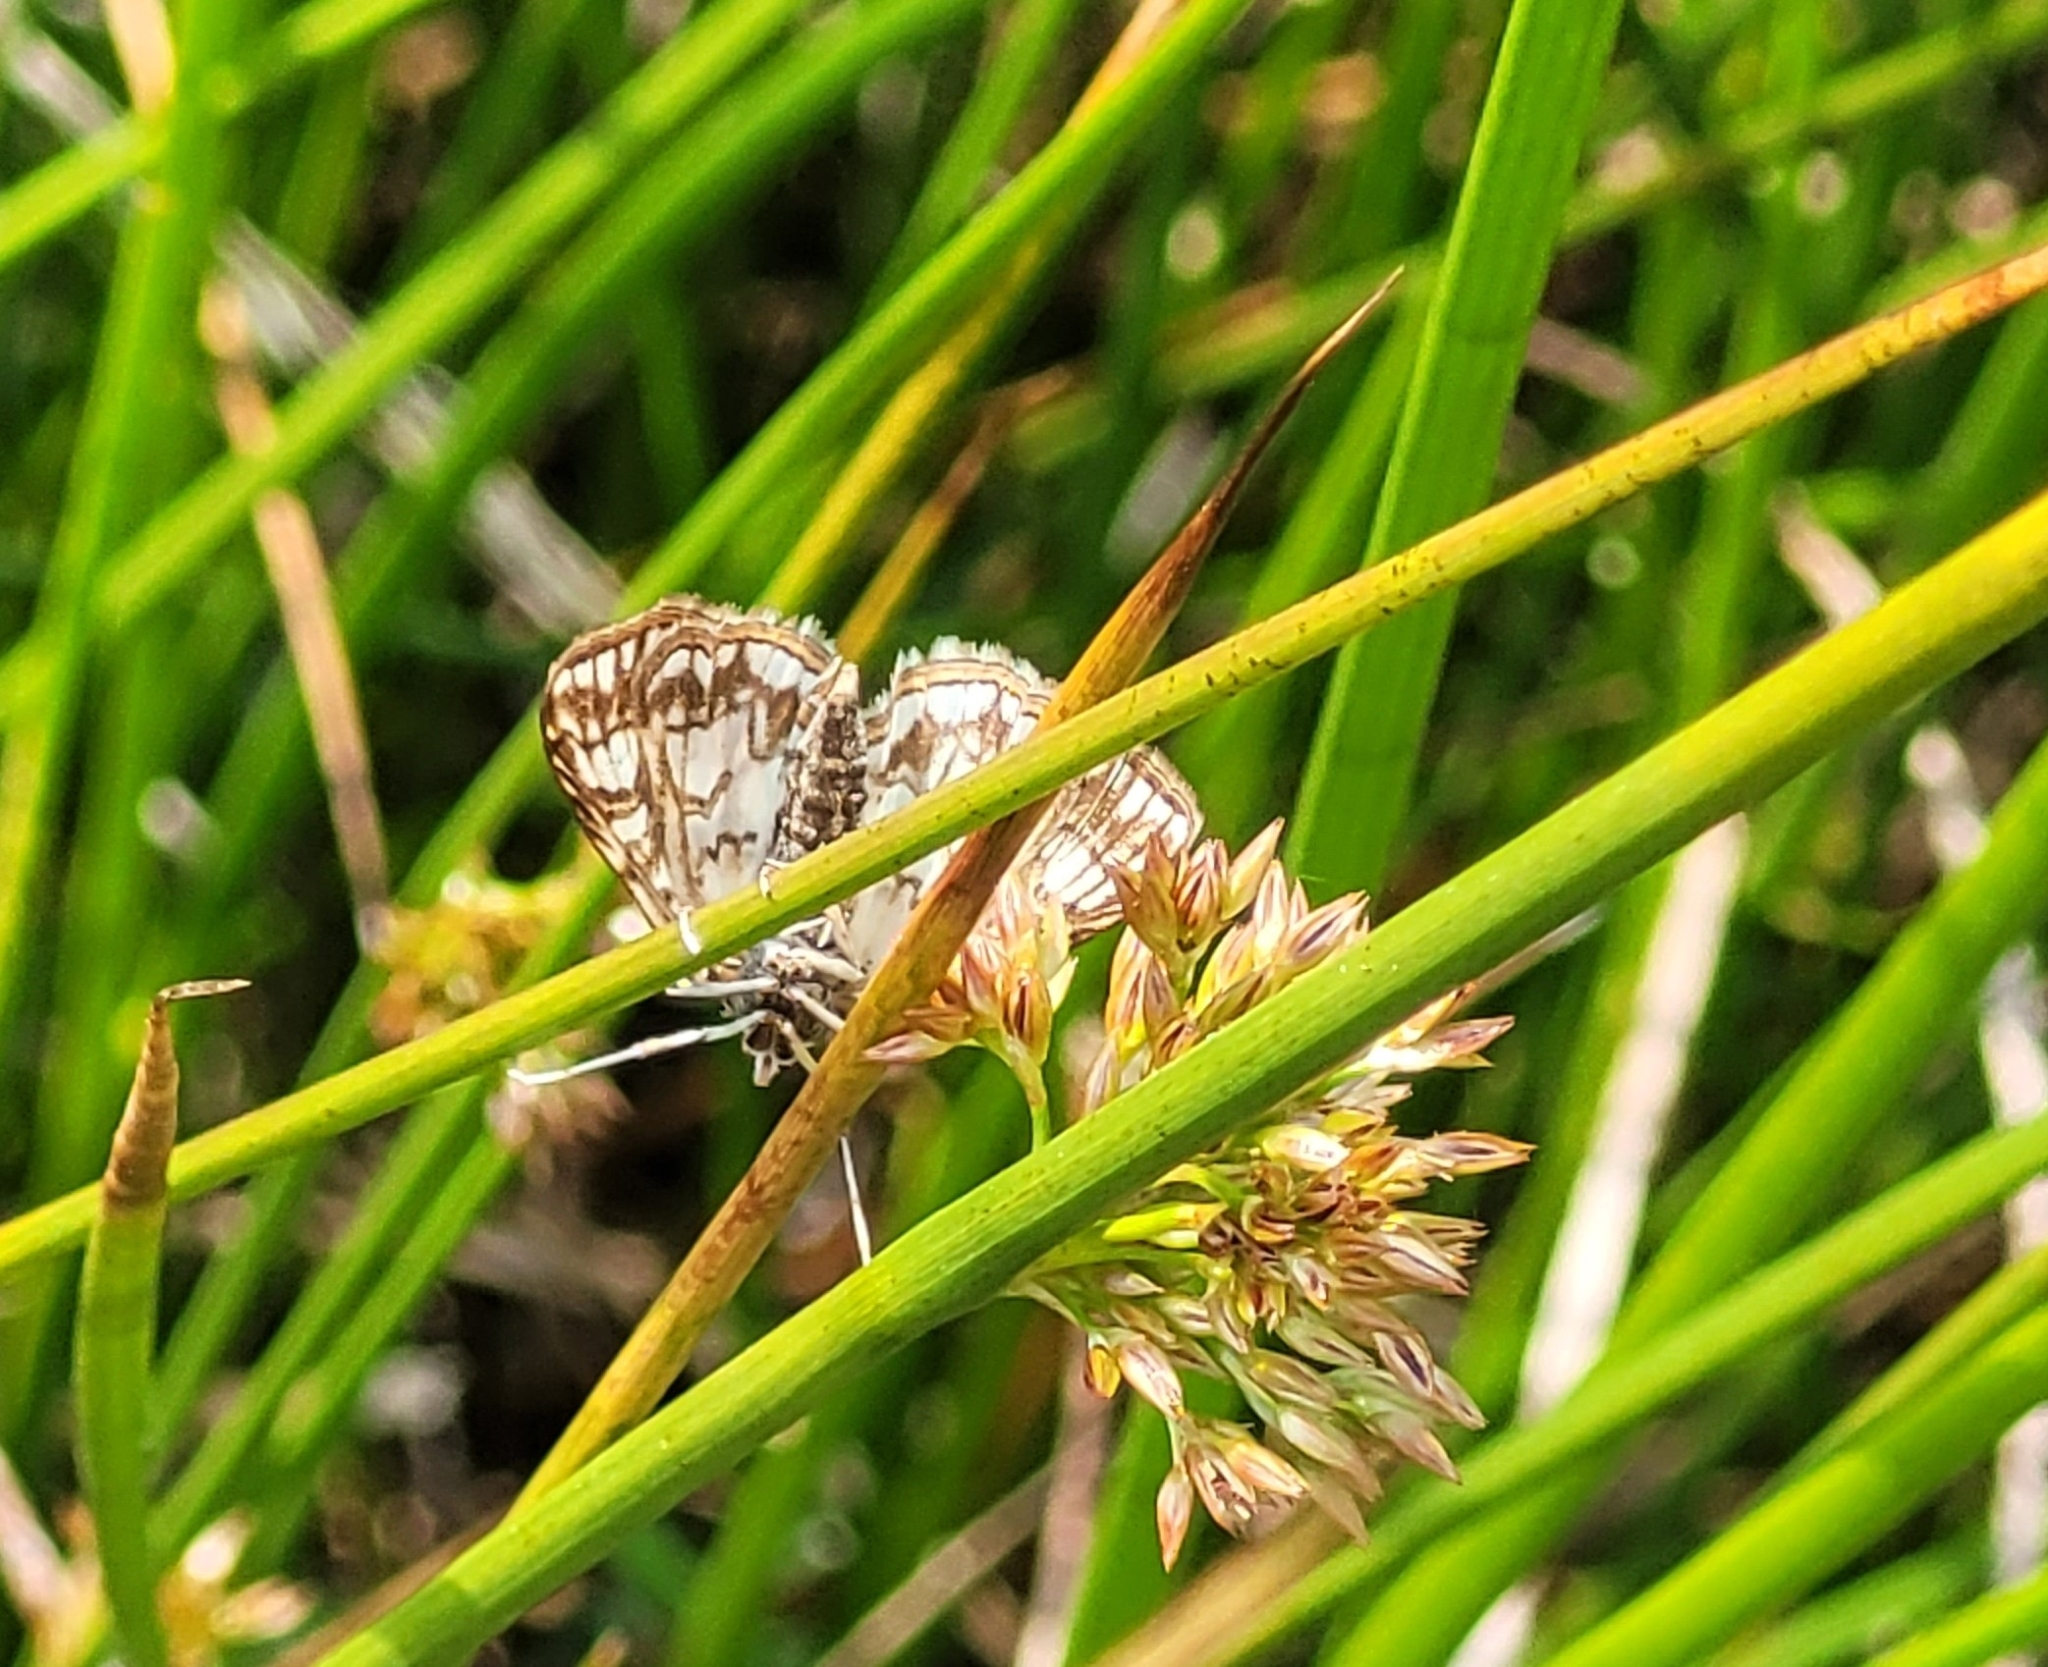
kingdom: Animalia
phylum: Arthropoda
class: Insecta
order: Lepidoptera
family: Crambidae
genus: Elophila
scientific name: Elophila nymphaeata
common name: Brown china-mark
